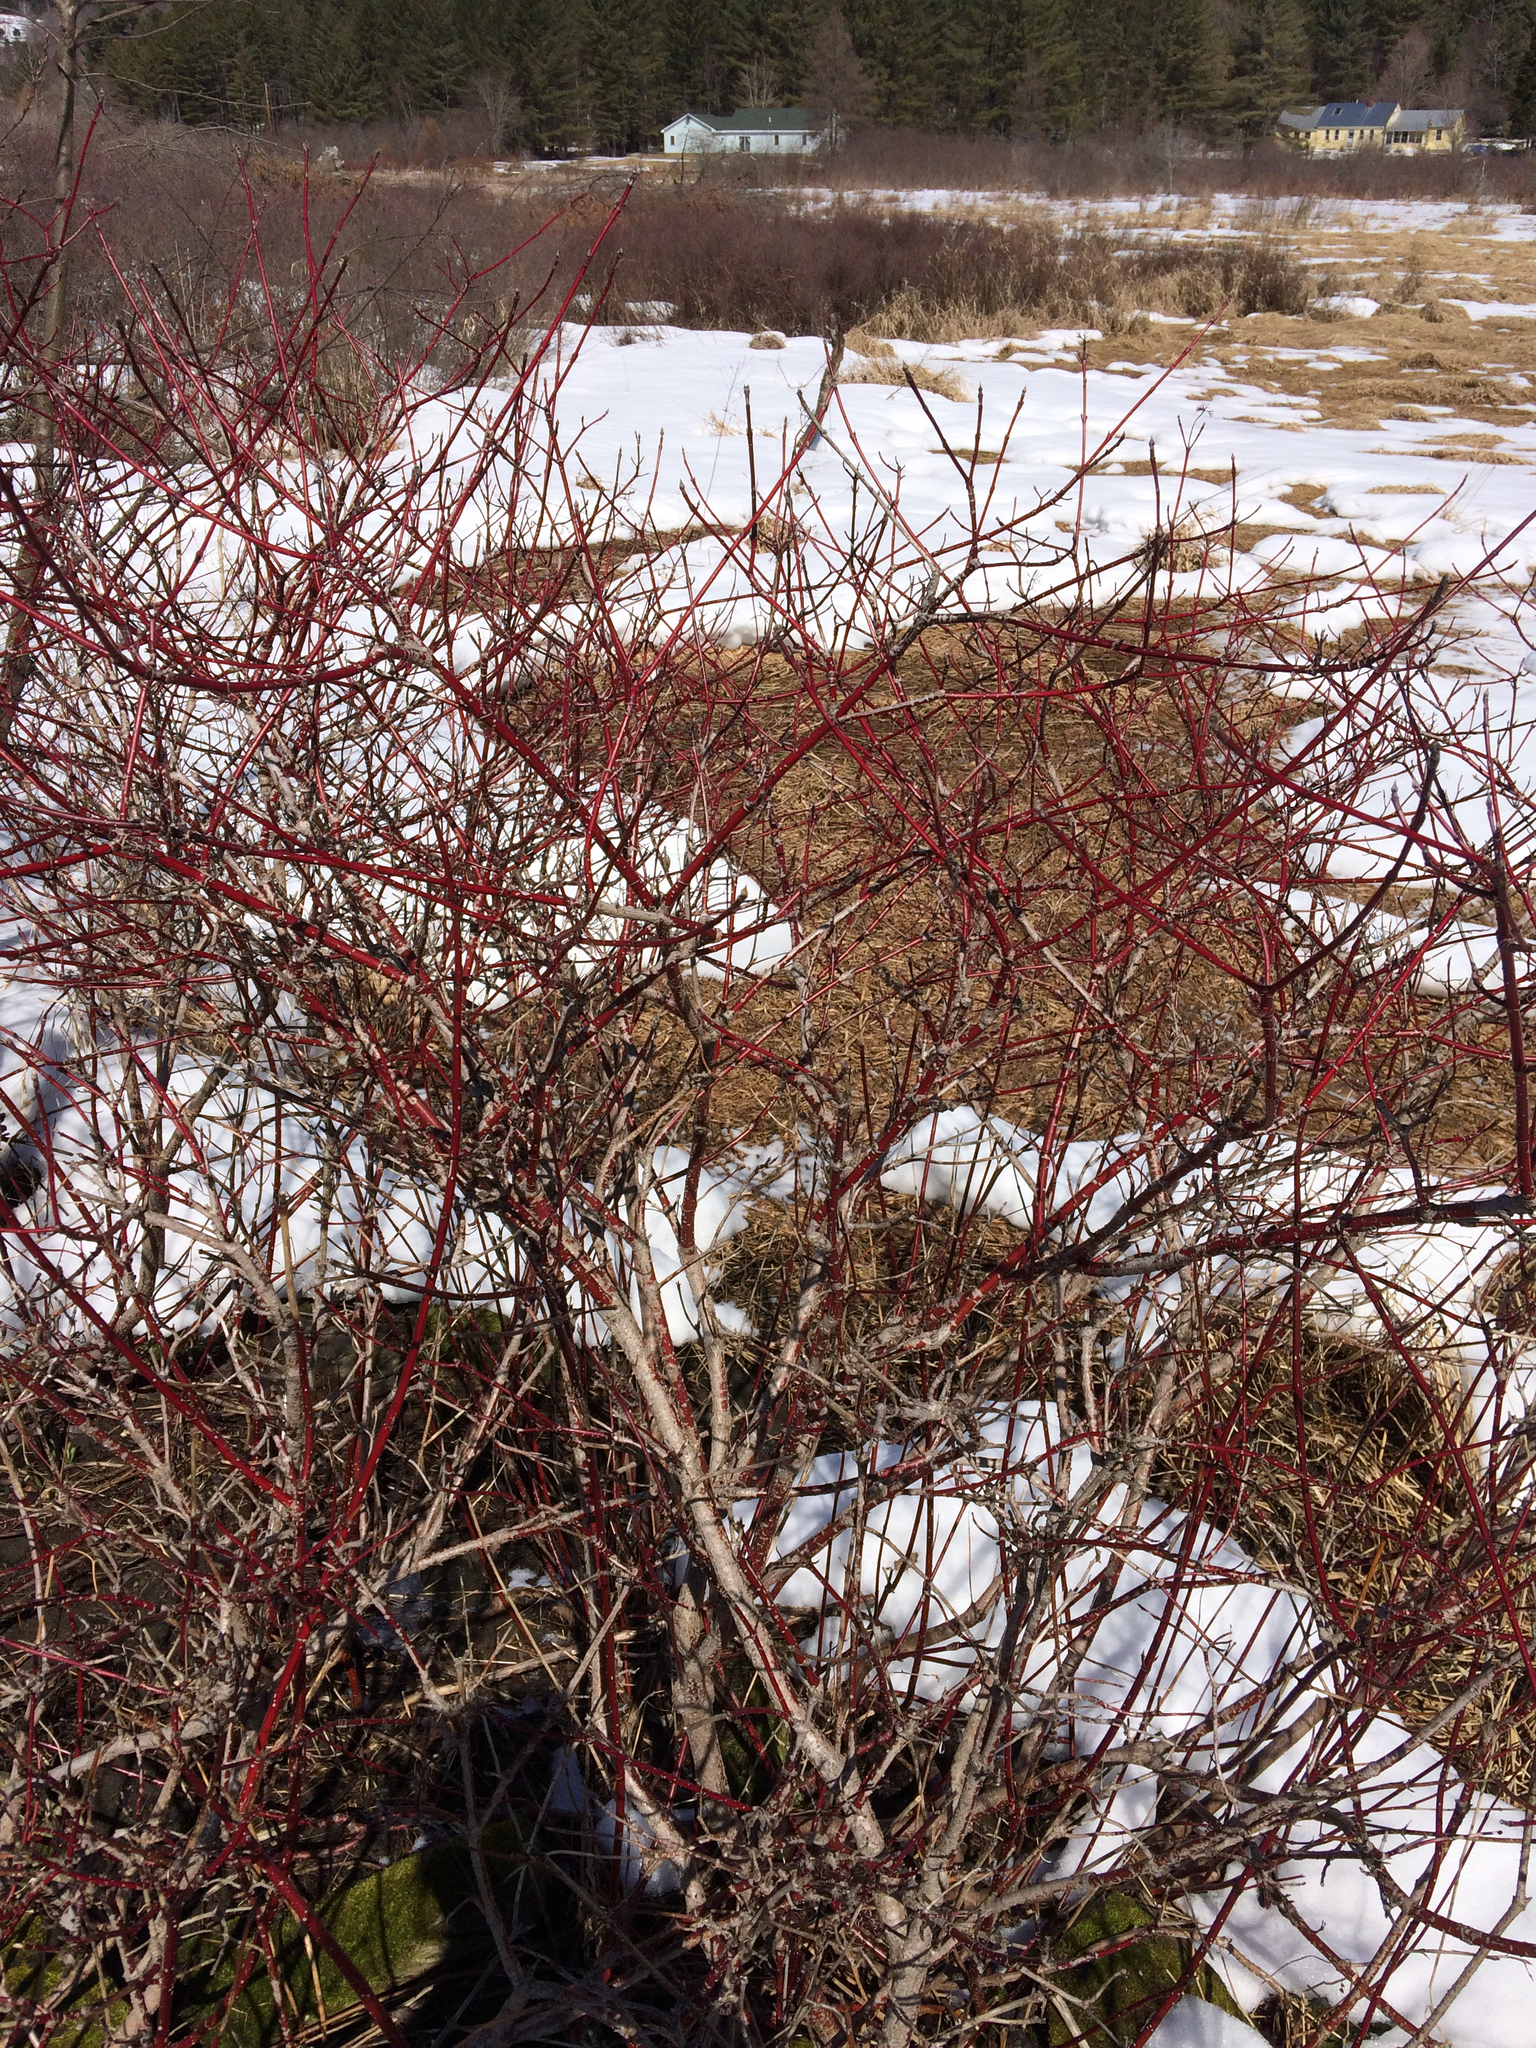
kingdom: Plantae
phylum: Tracheophyta
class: Magnoliopsida
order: Cornales
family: Cornaceae
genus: Cornus
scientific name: Cornus sericea
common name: Red-osier dogwood
